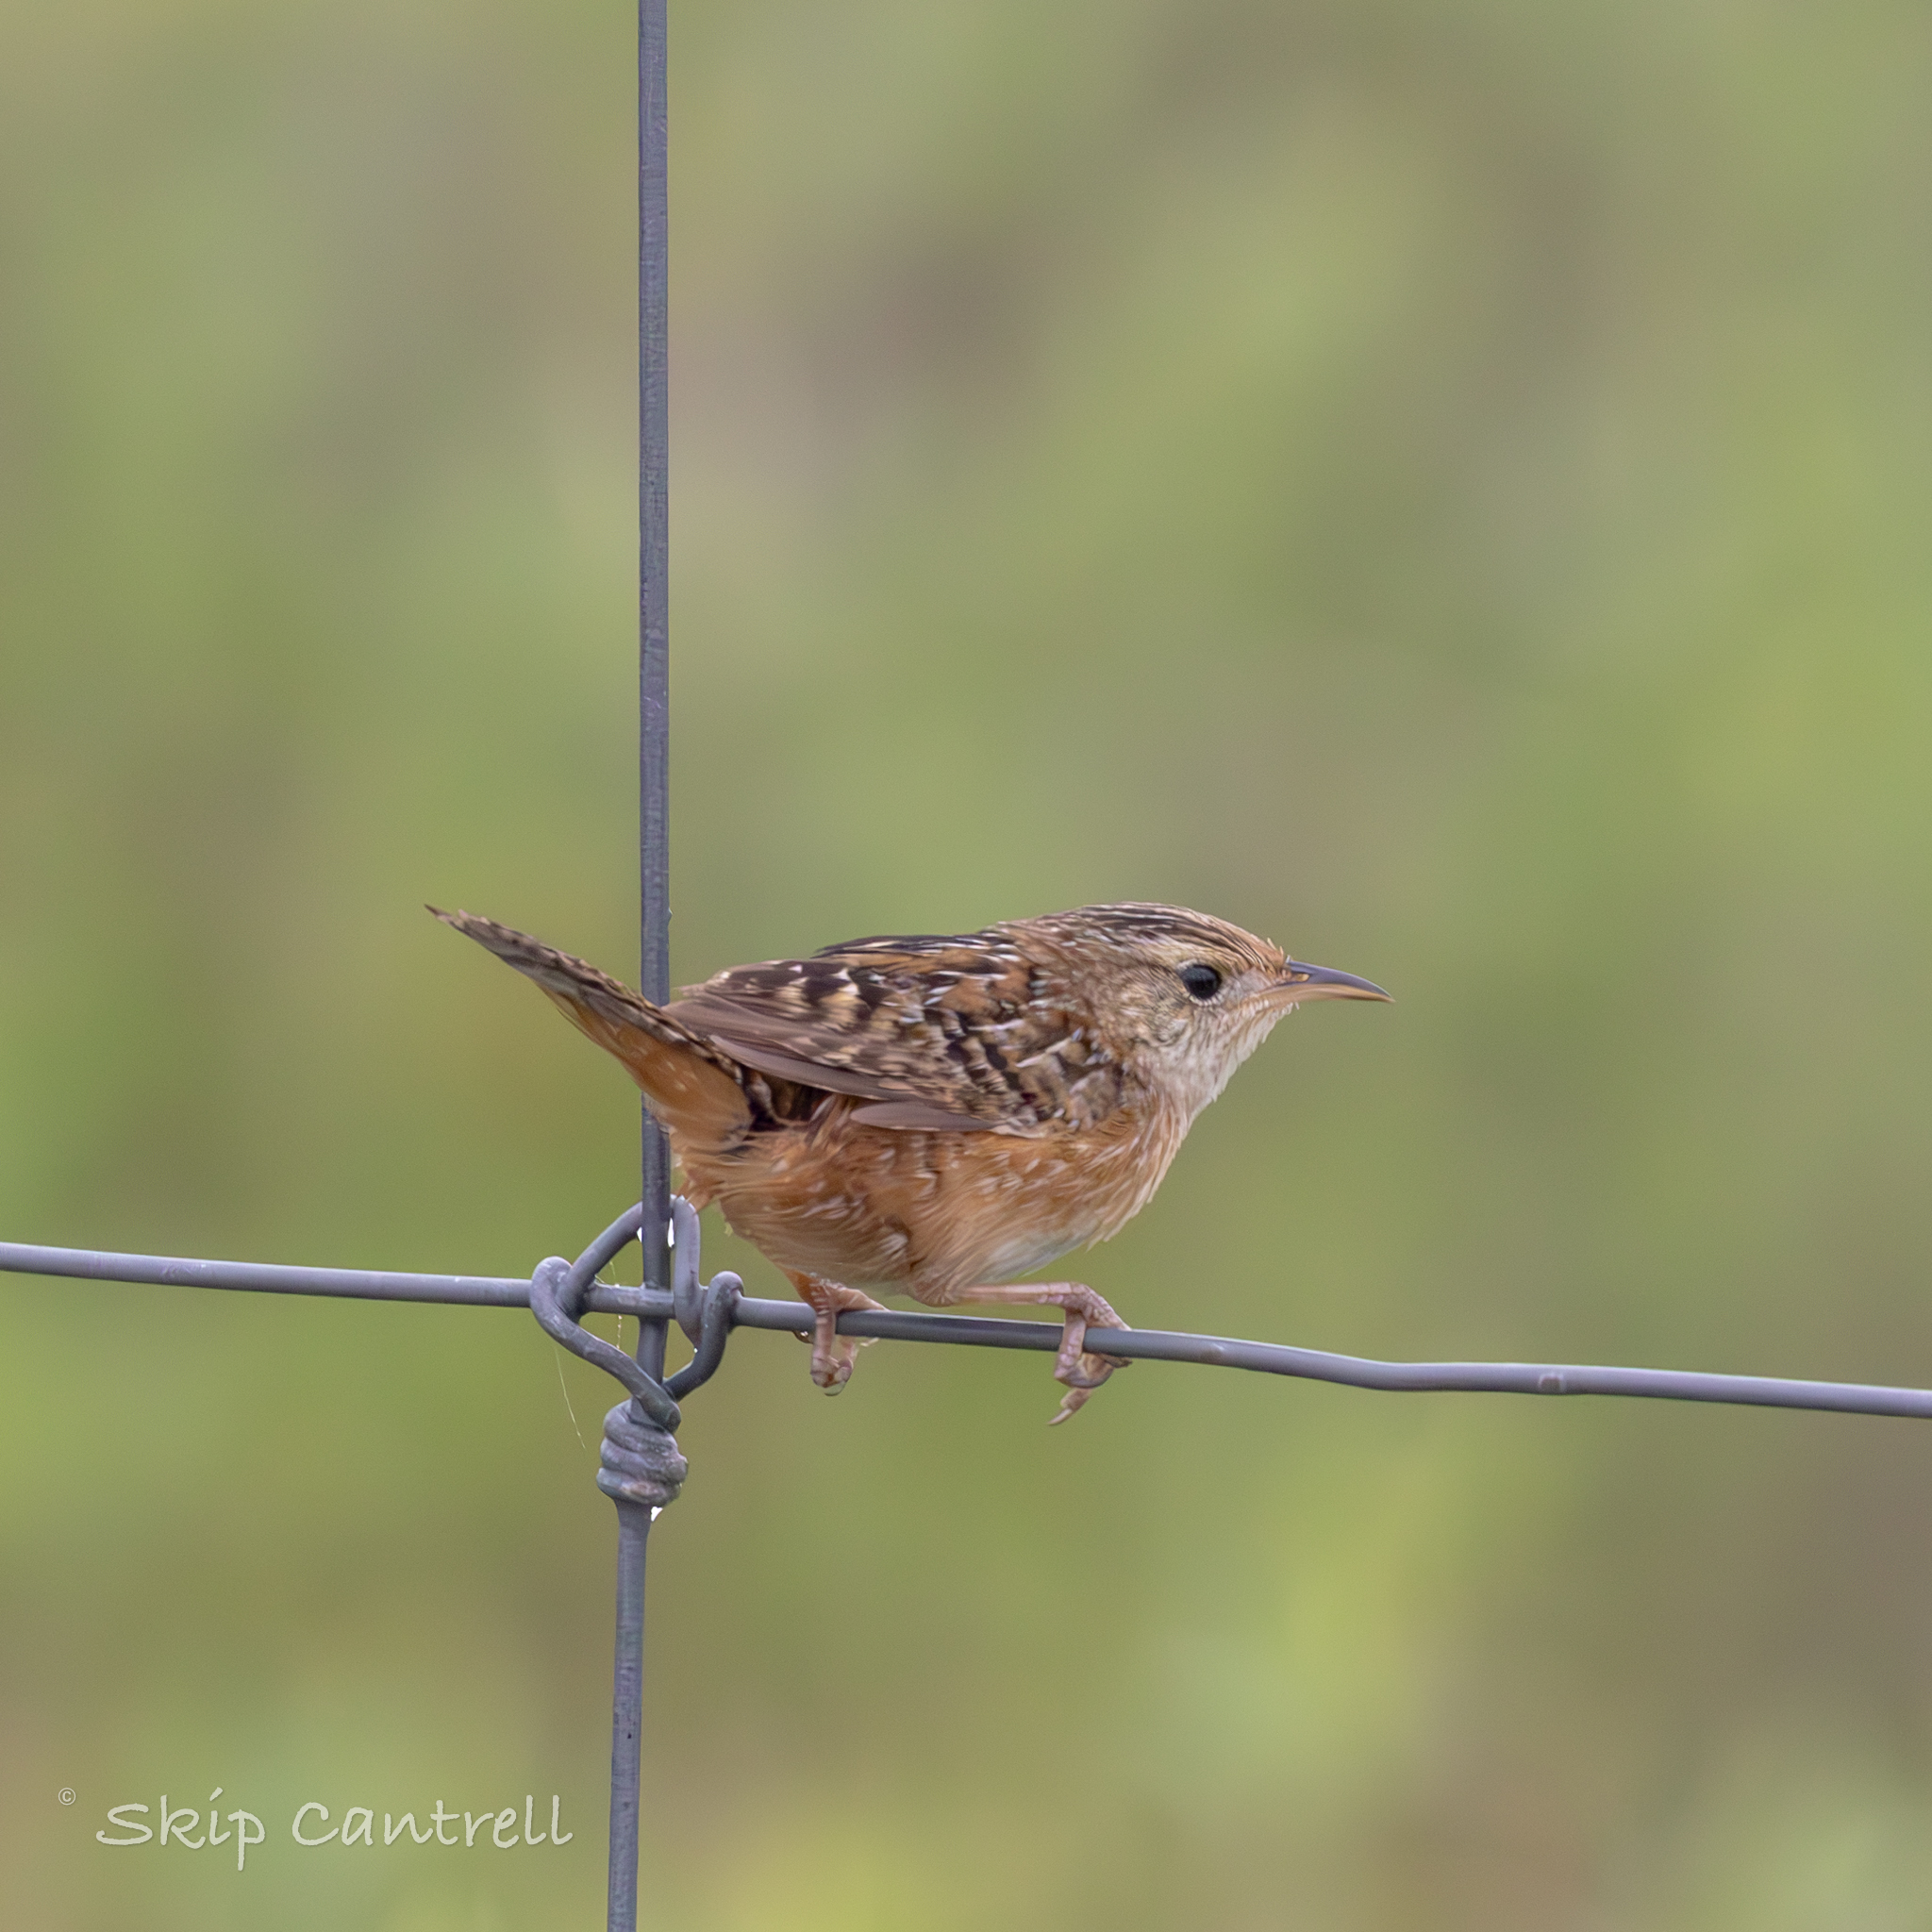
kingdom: Animalia
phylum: Chordata
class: Aves
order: Passeriformes
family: Troglodytidae
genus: Cistothorus
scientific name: Cistothorus platensis
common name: Sedge wren
